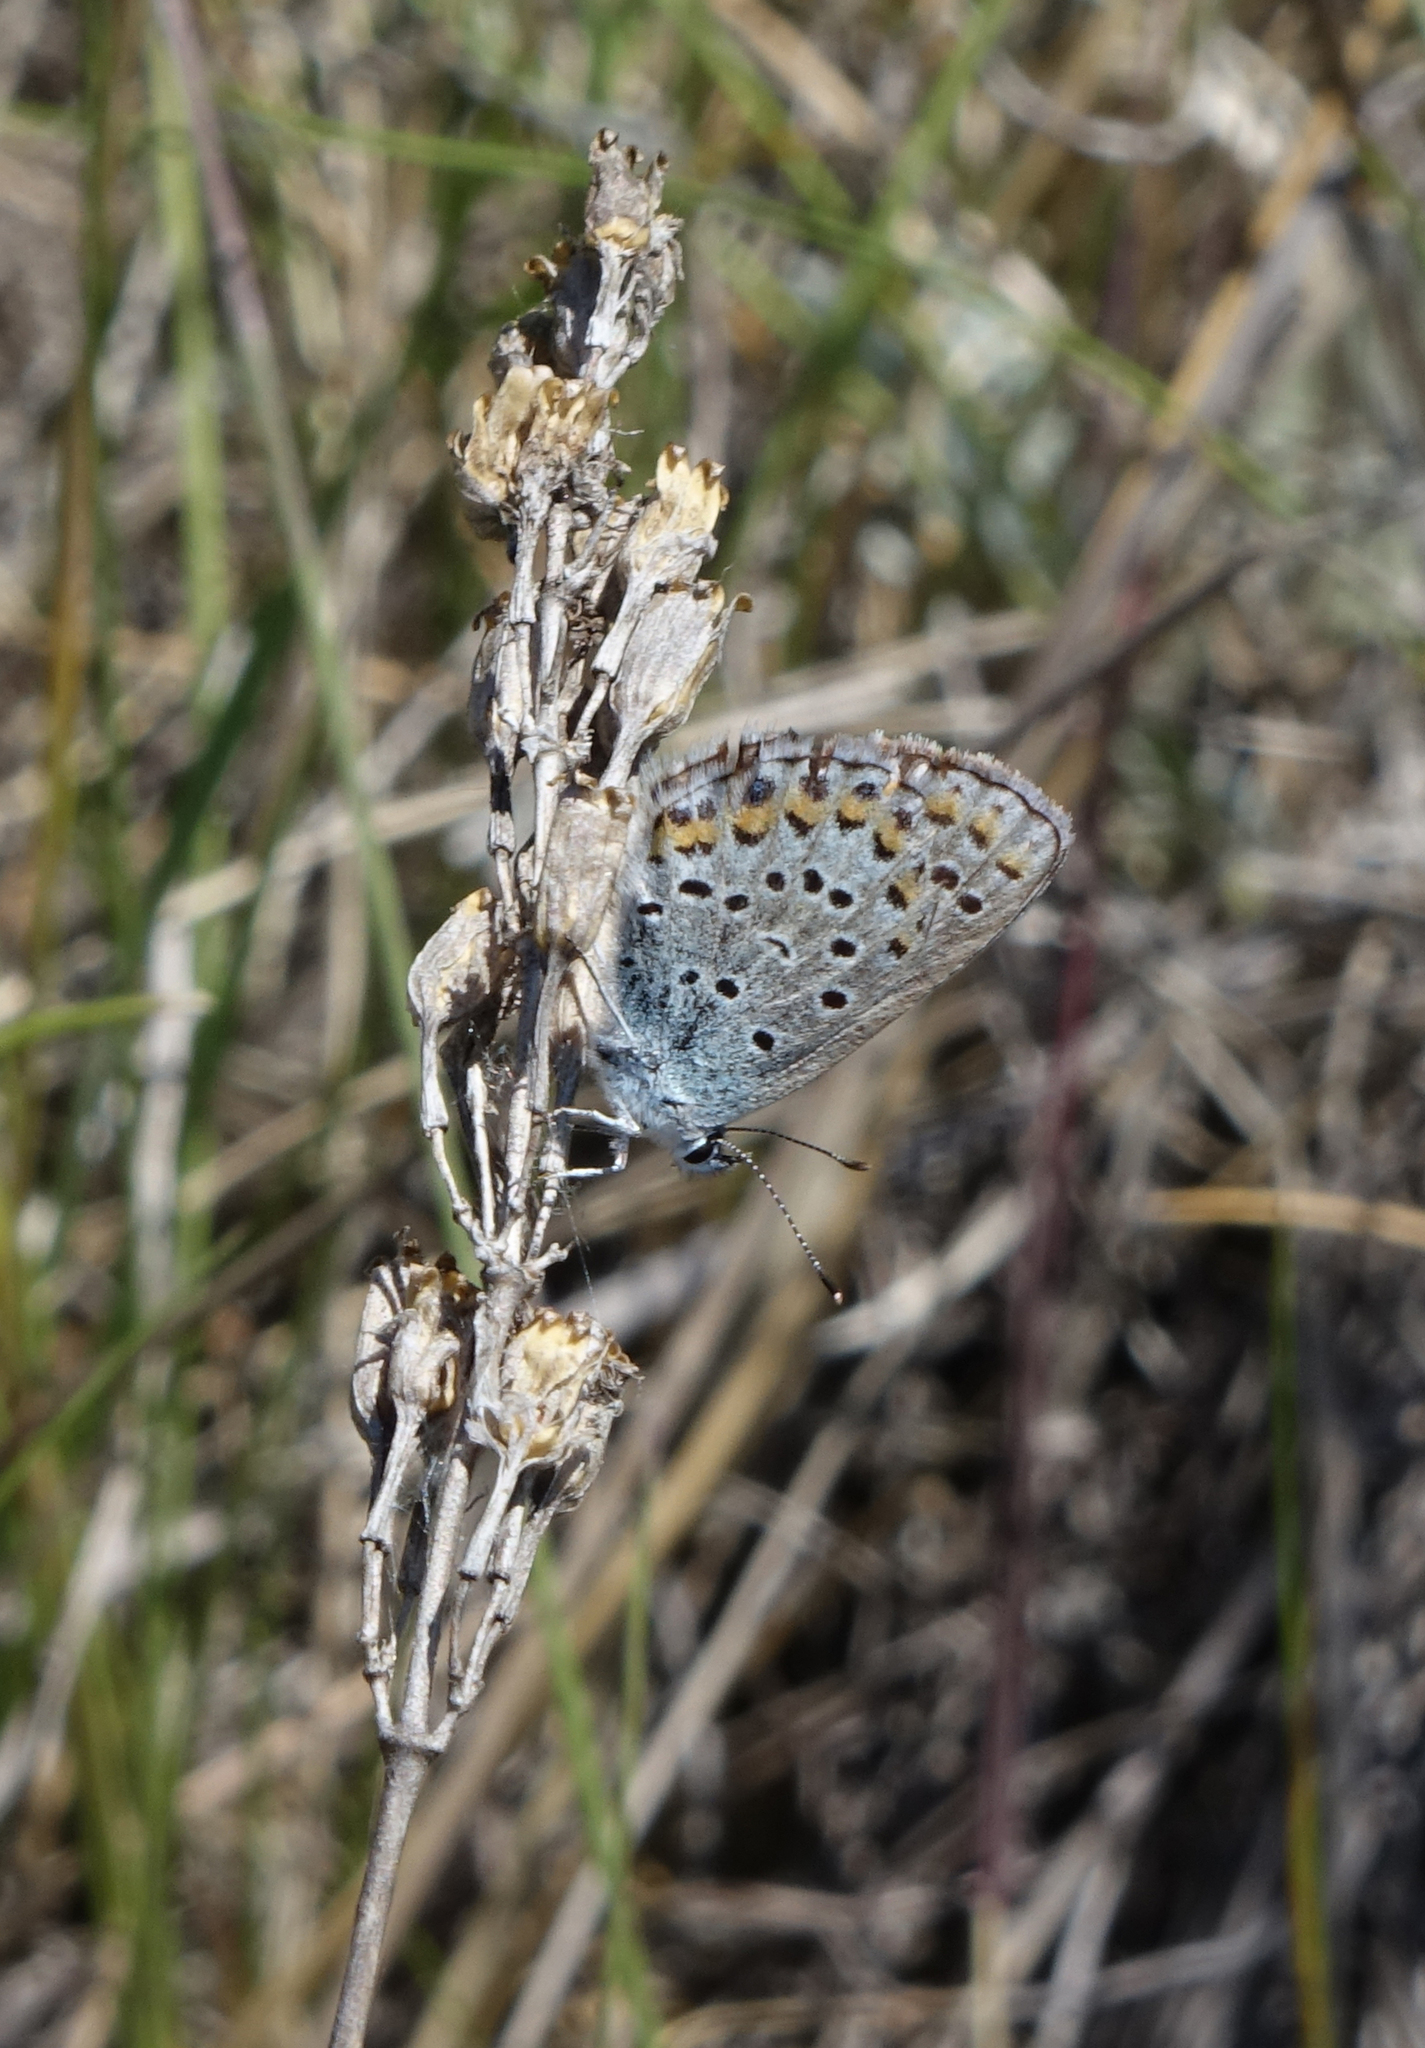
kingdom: Animalia
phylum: Arthropoda
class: Insecta
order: Lepidoptera
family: Lycaenidae
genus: Plebejus
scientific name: Plebejus argus
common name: Silver-studded blue
